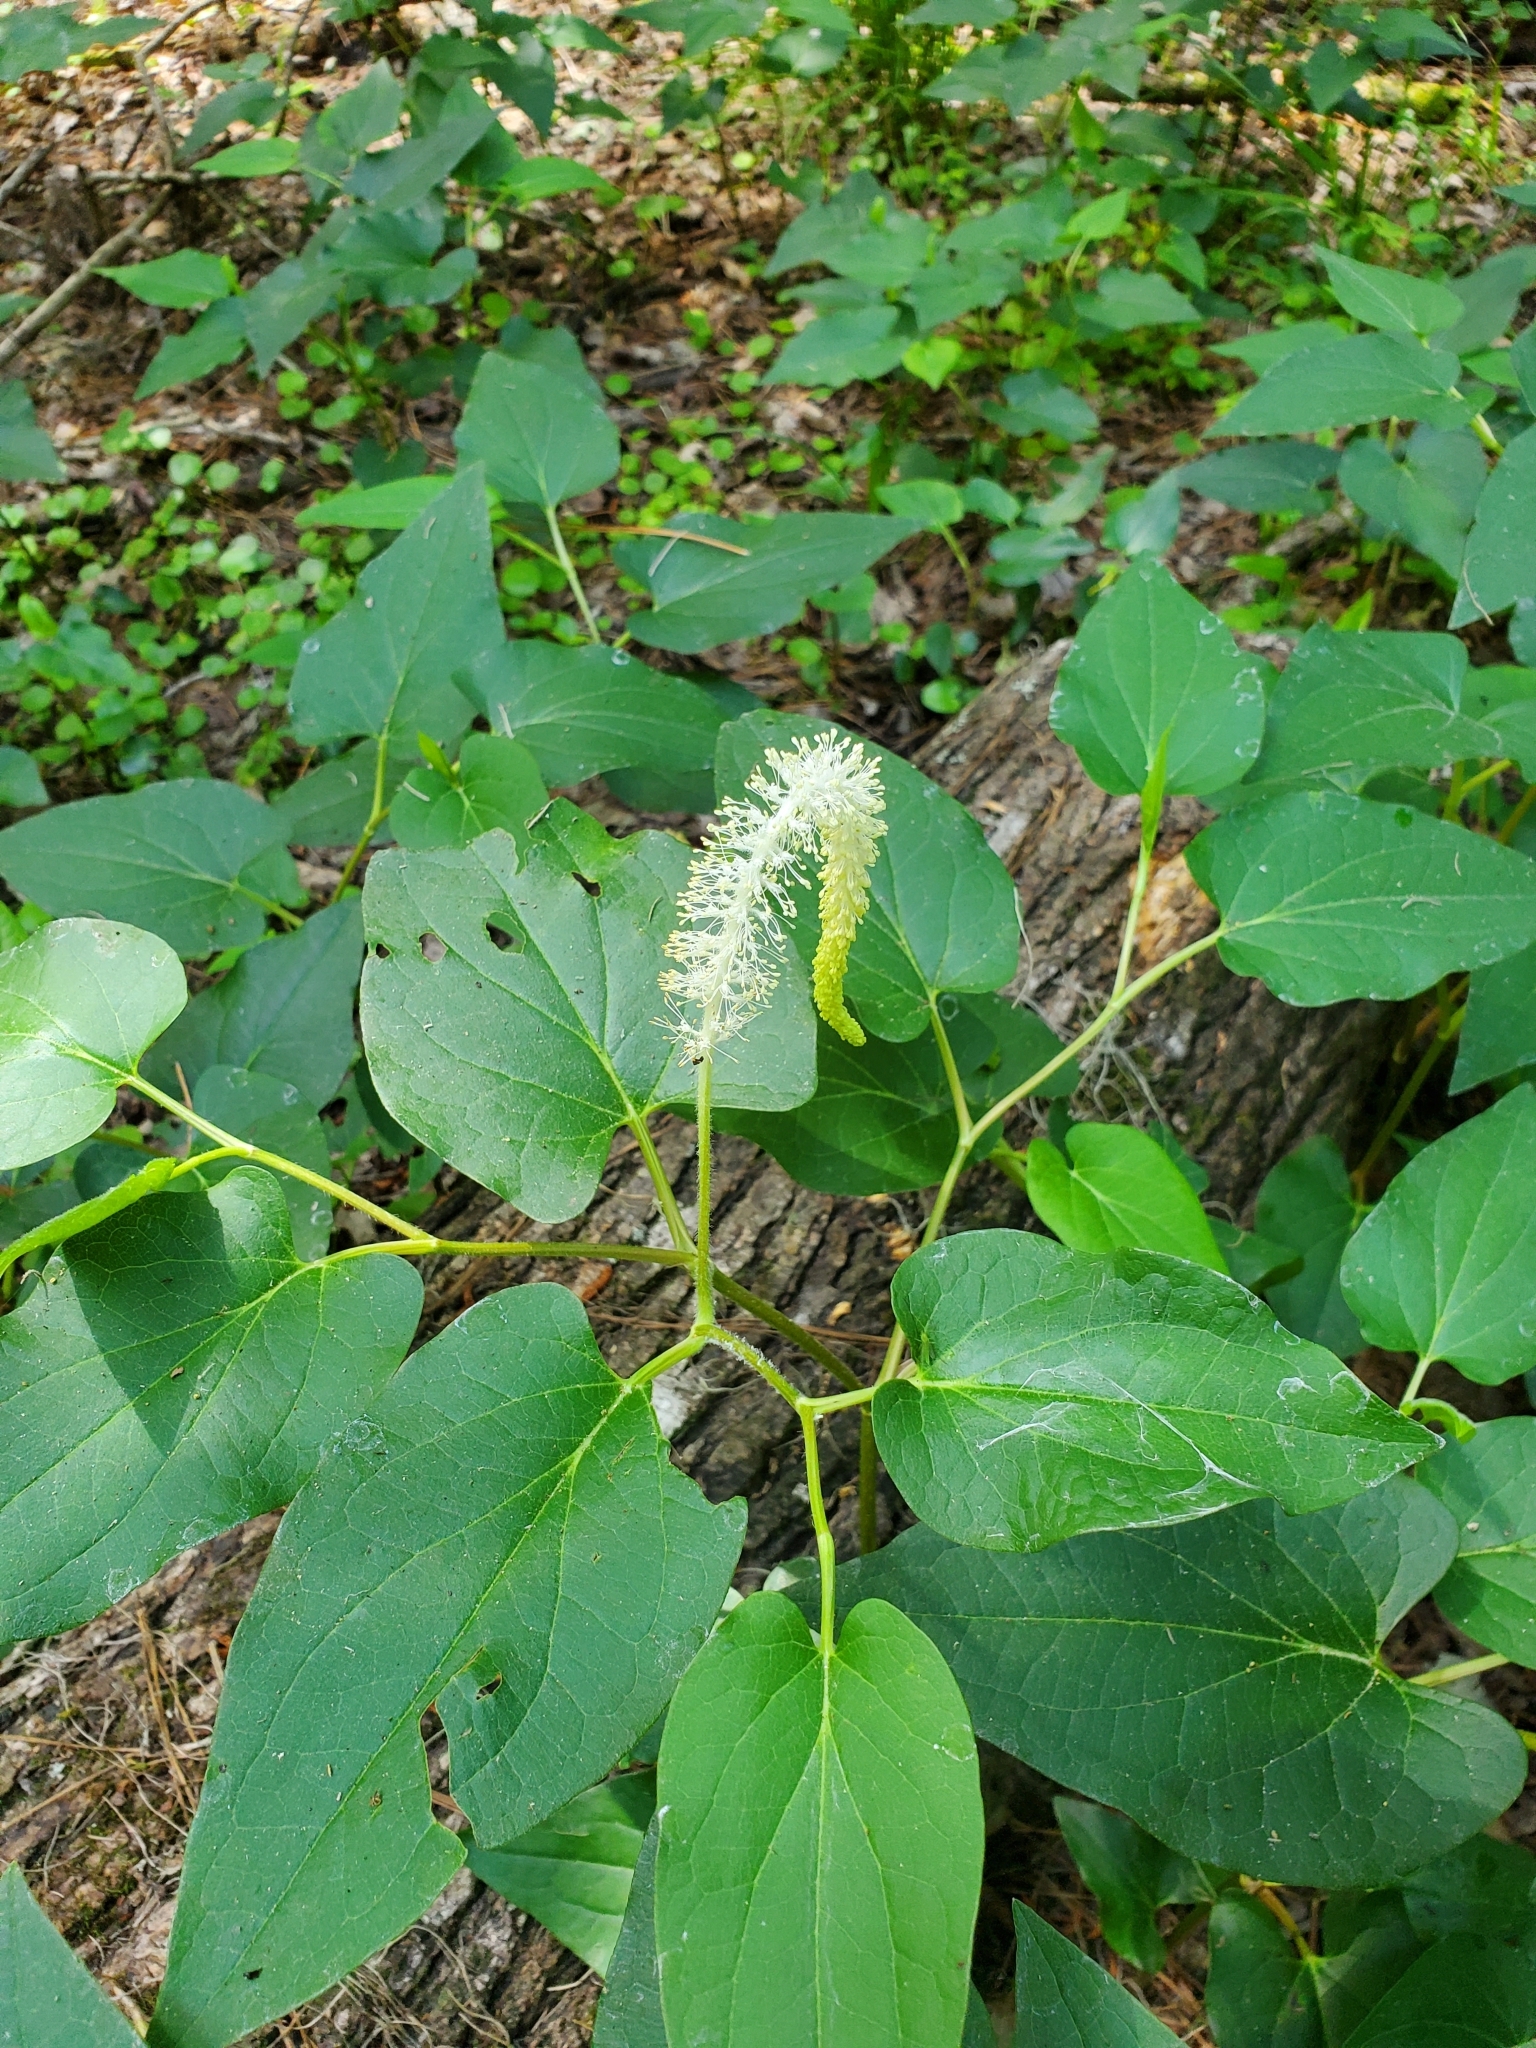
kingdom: Plantae
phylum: Tracheophyta
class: Magnoliopsida
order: Piperales
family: Saururaceae
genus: Saururus
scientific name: Saururus cernuus
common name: Lizard's-tail
